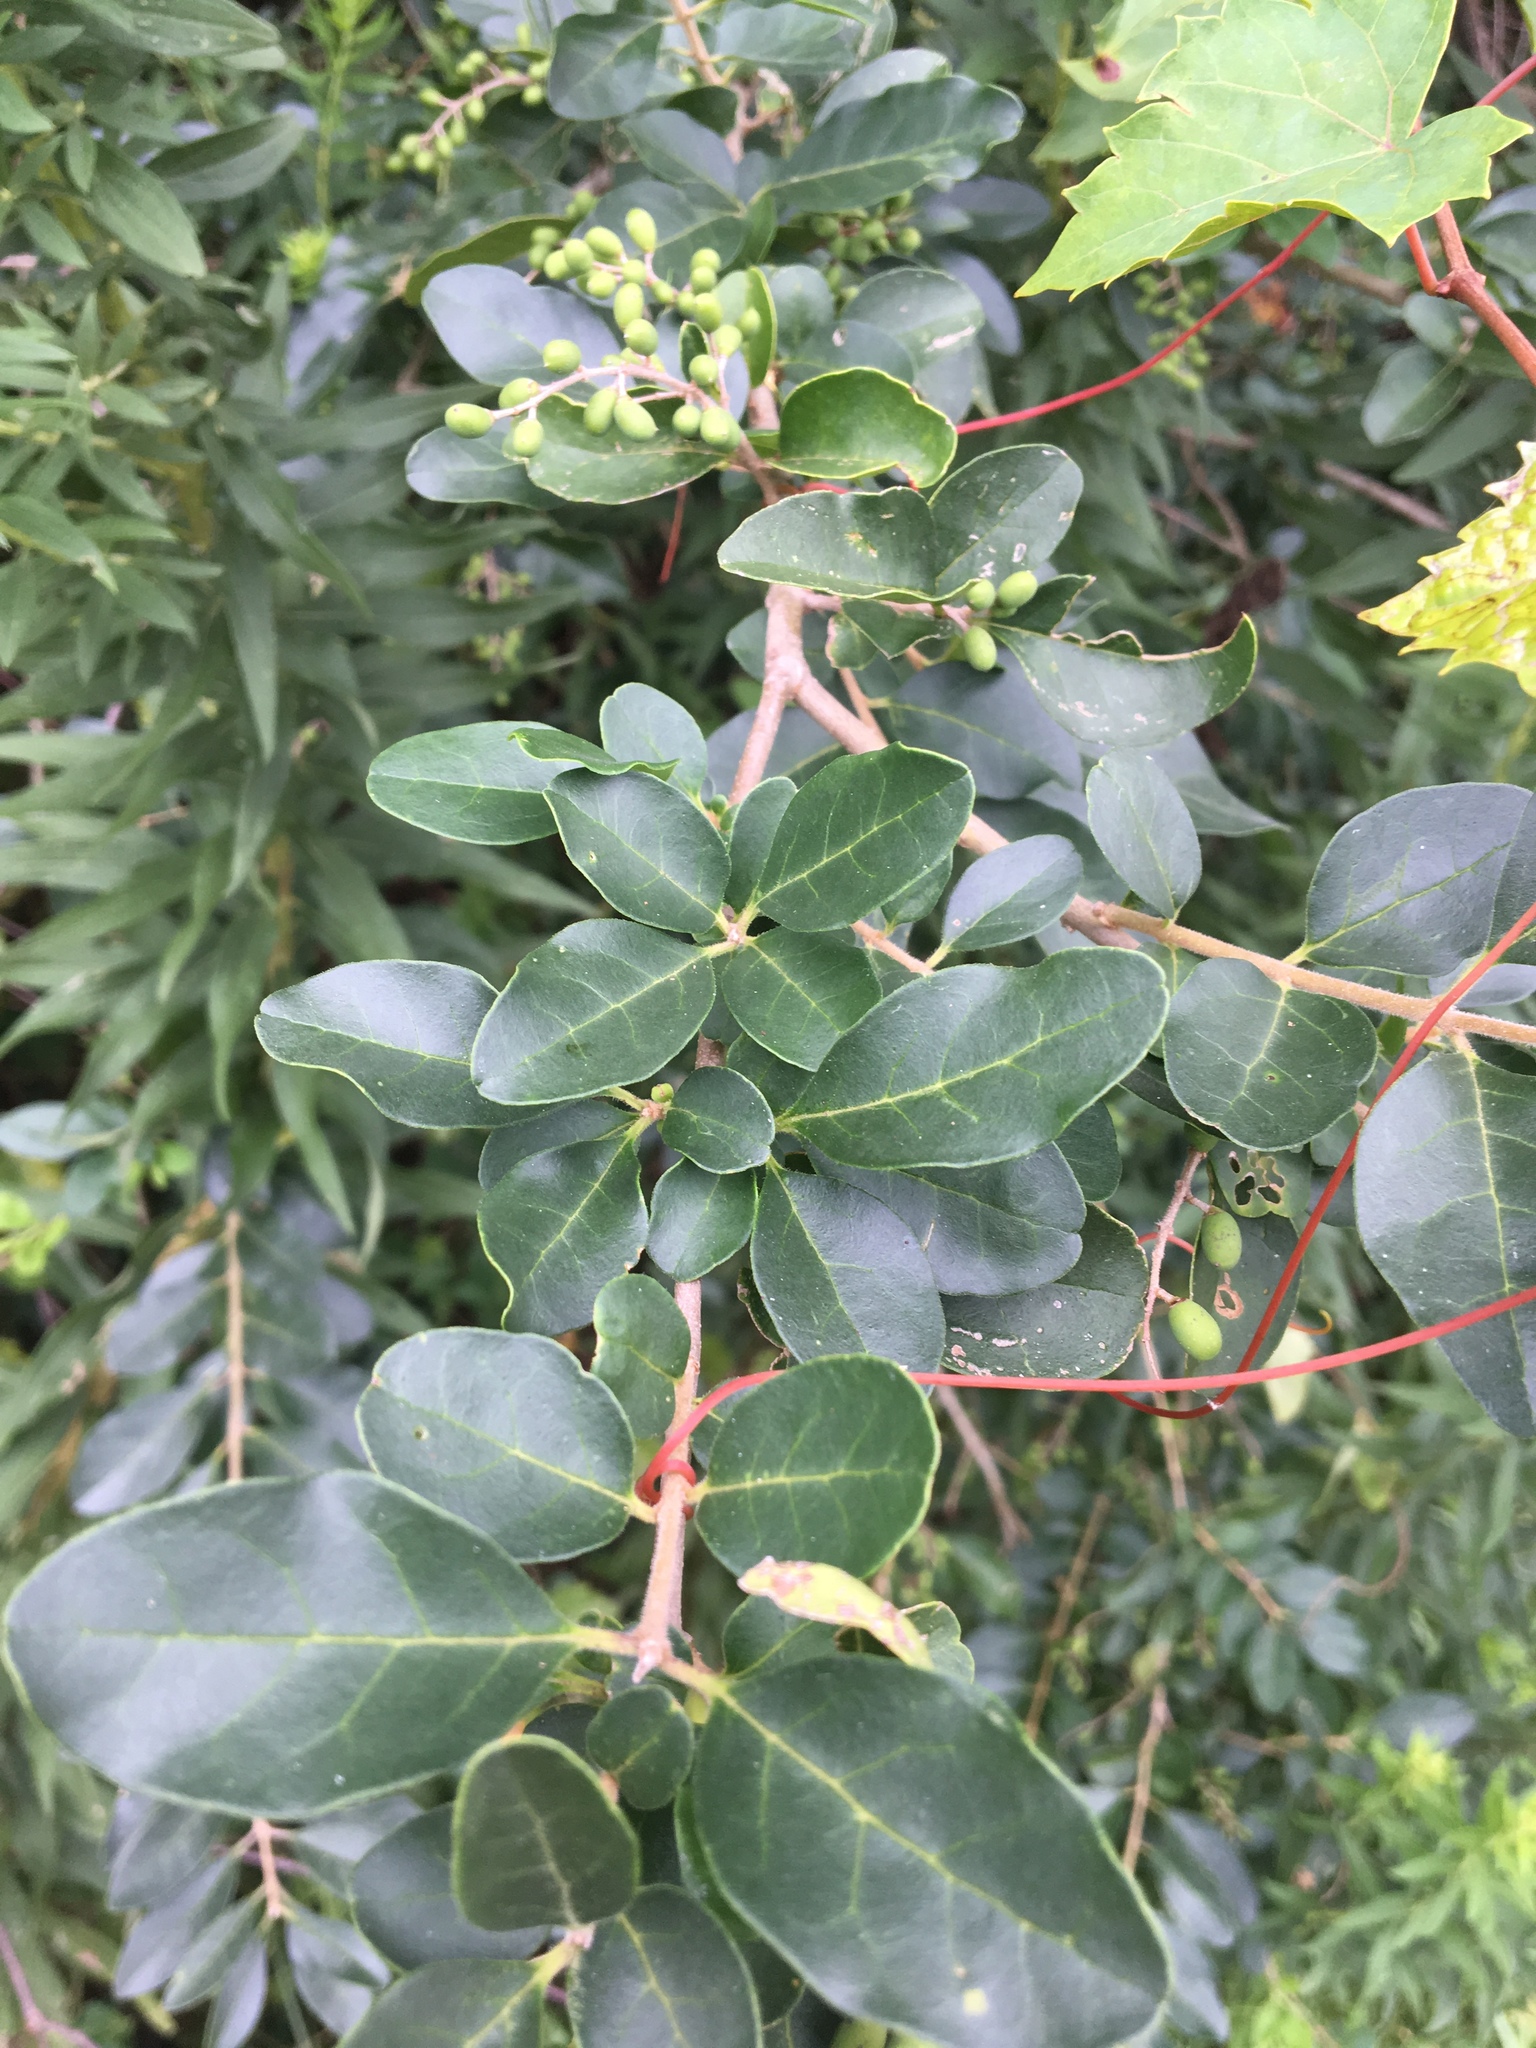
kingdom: Plantae
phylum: Tracheophyta
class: Magnoliopsida
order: Lamiales
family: Oleaceae
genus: Ligustrum
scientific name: Ligustrum sinense
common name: Chinese privet
